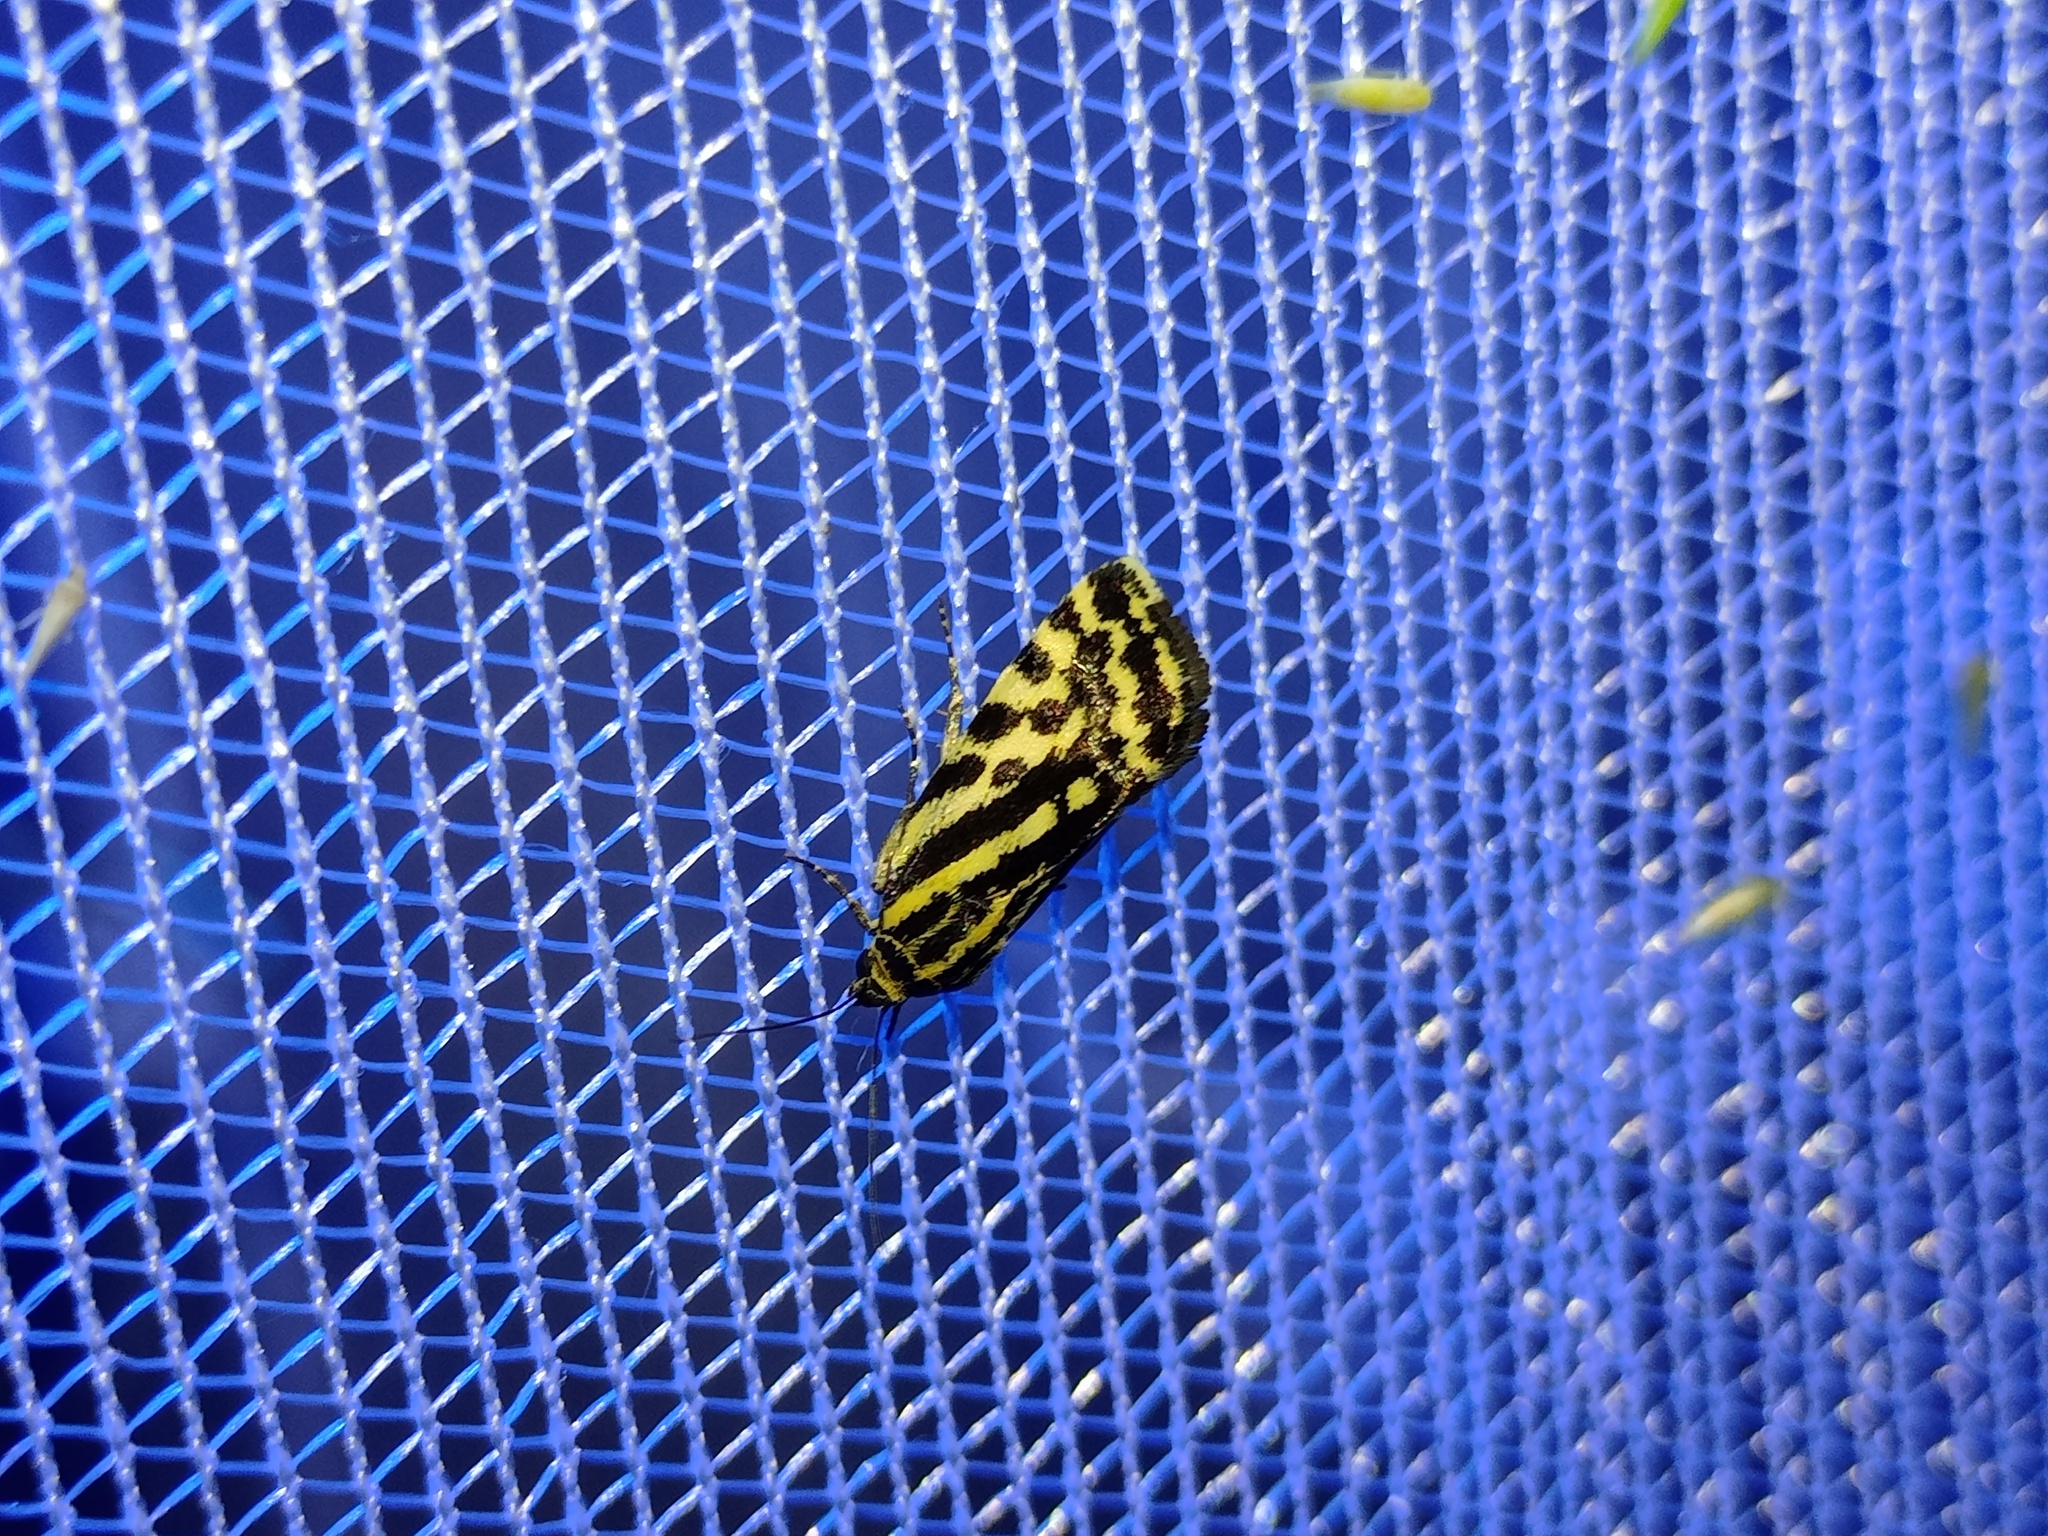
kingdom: Animalia
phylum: Arthropoda
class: Insecta
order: Lepidoptera
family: Noctuidae
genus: Acontia
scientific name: Acontia trabealis
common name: Spotted sulphur
